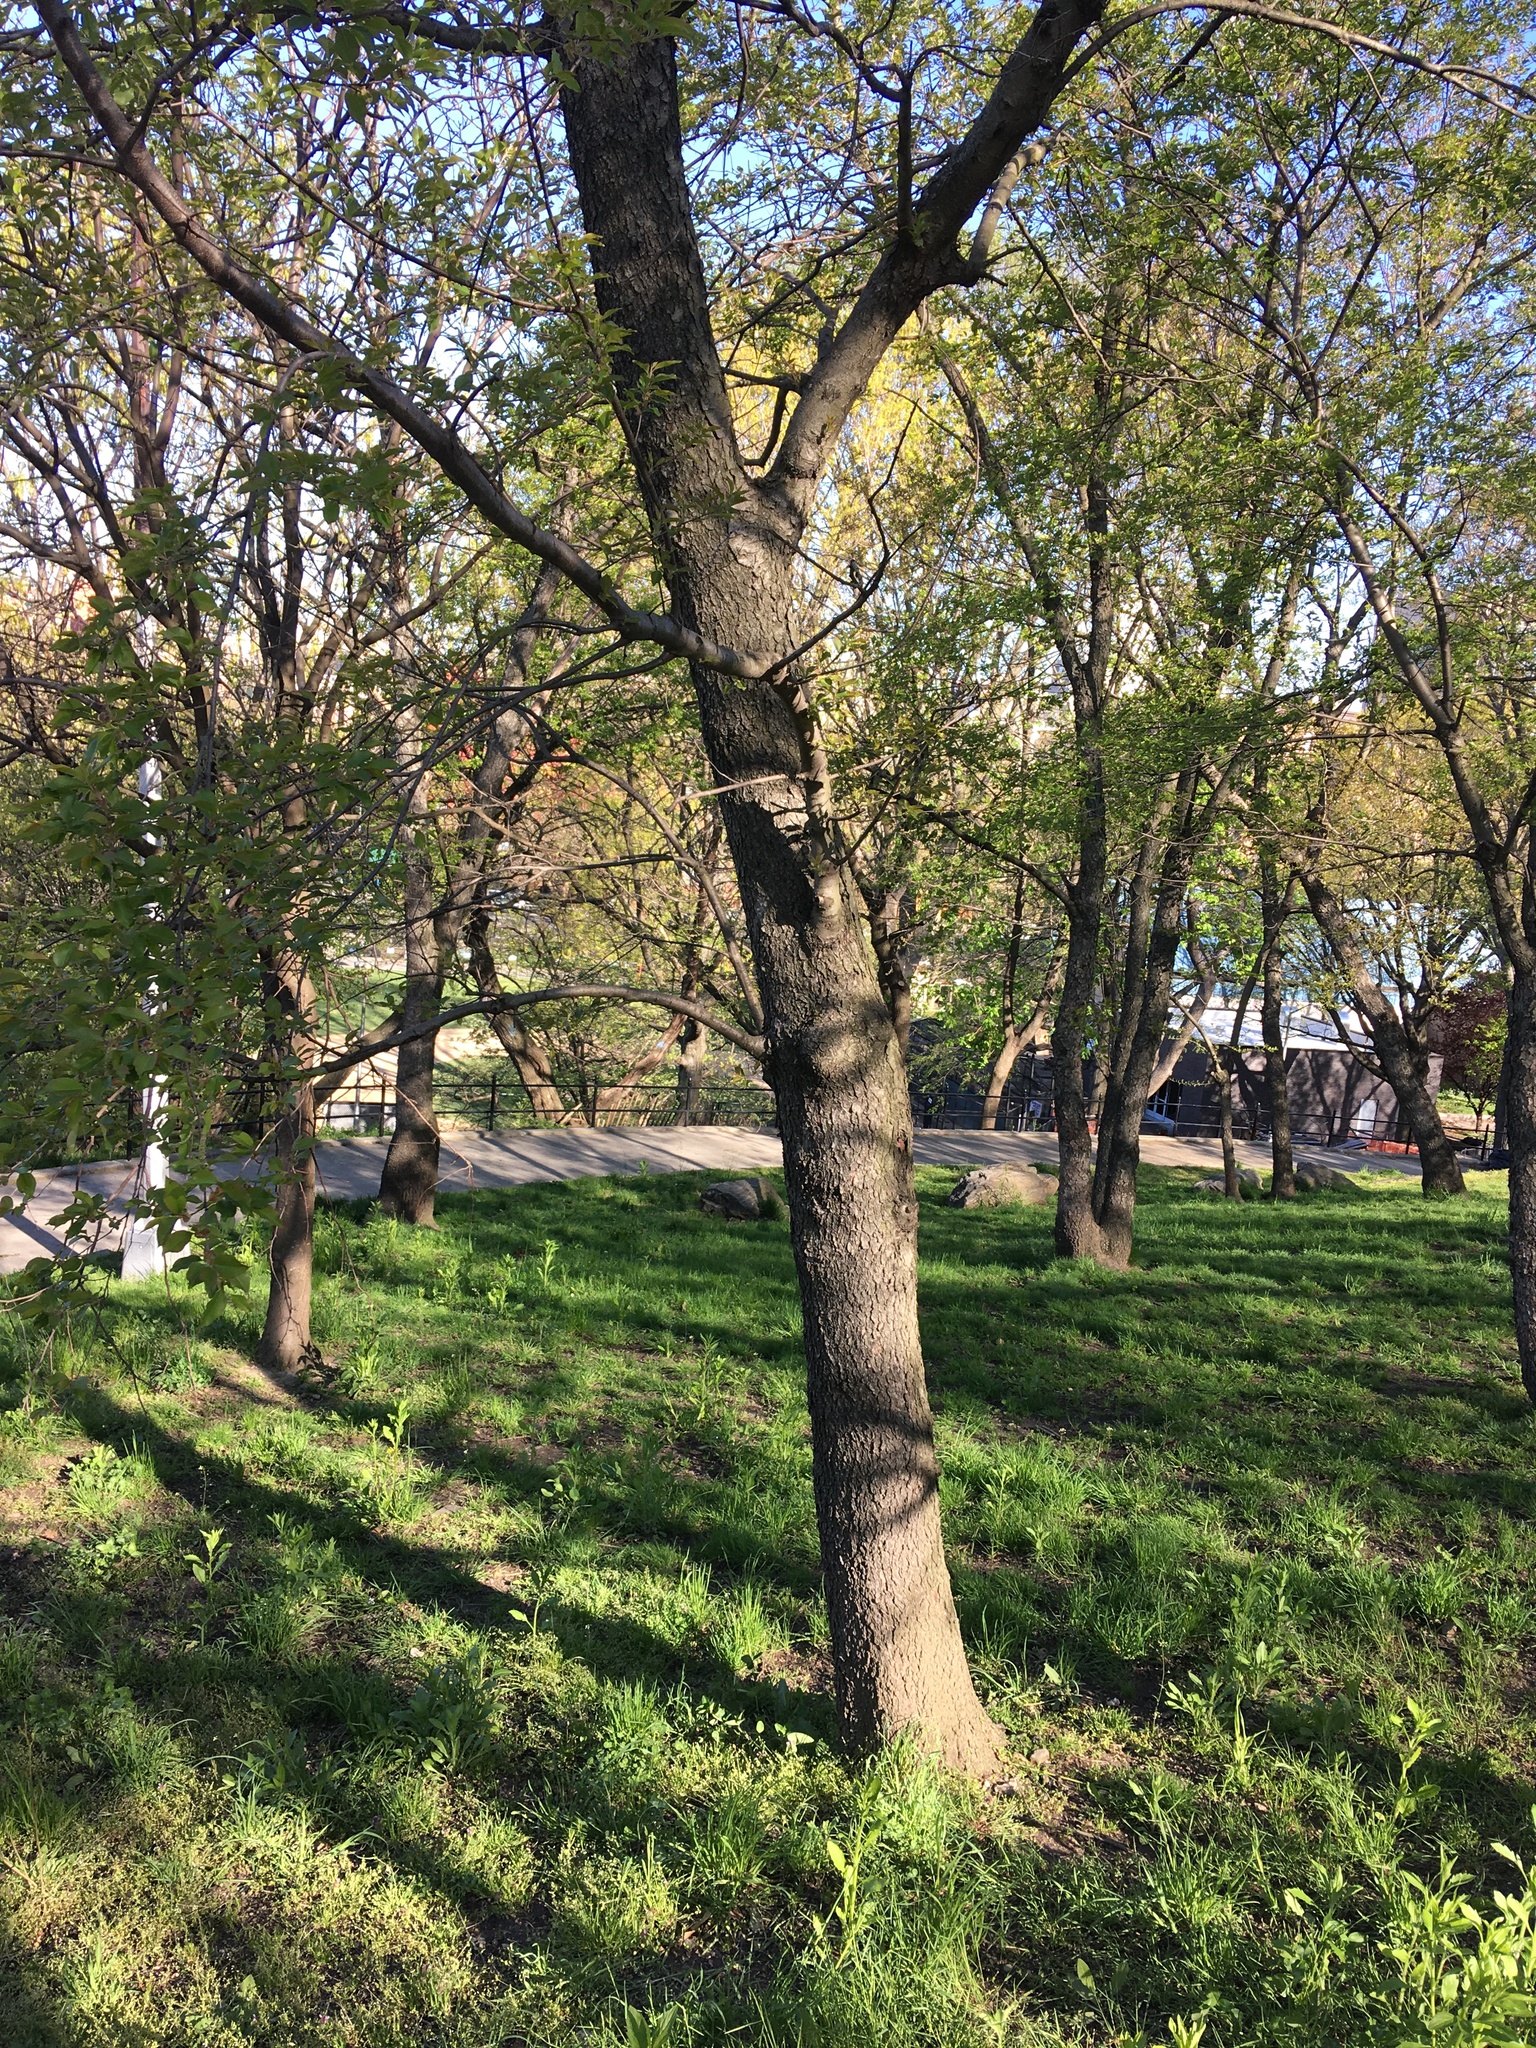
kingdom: Plantae
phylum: Tracheophyta
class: Magnoliopsida
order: Rosales
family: Rosaceae
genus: Prunus
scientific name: Prunus serotina
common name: Black cherry
